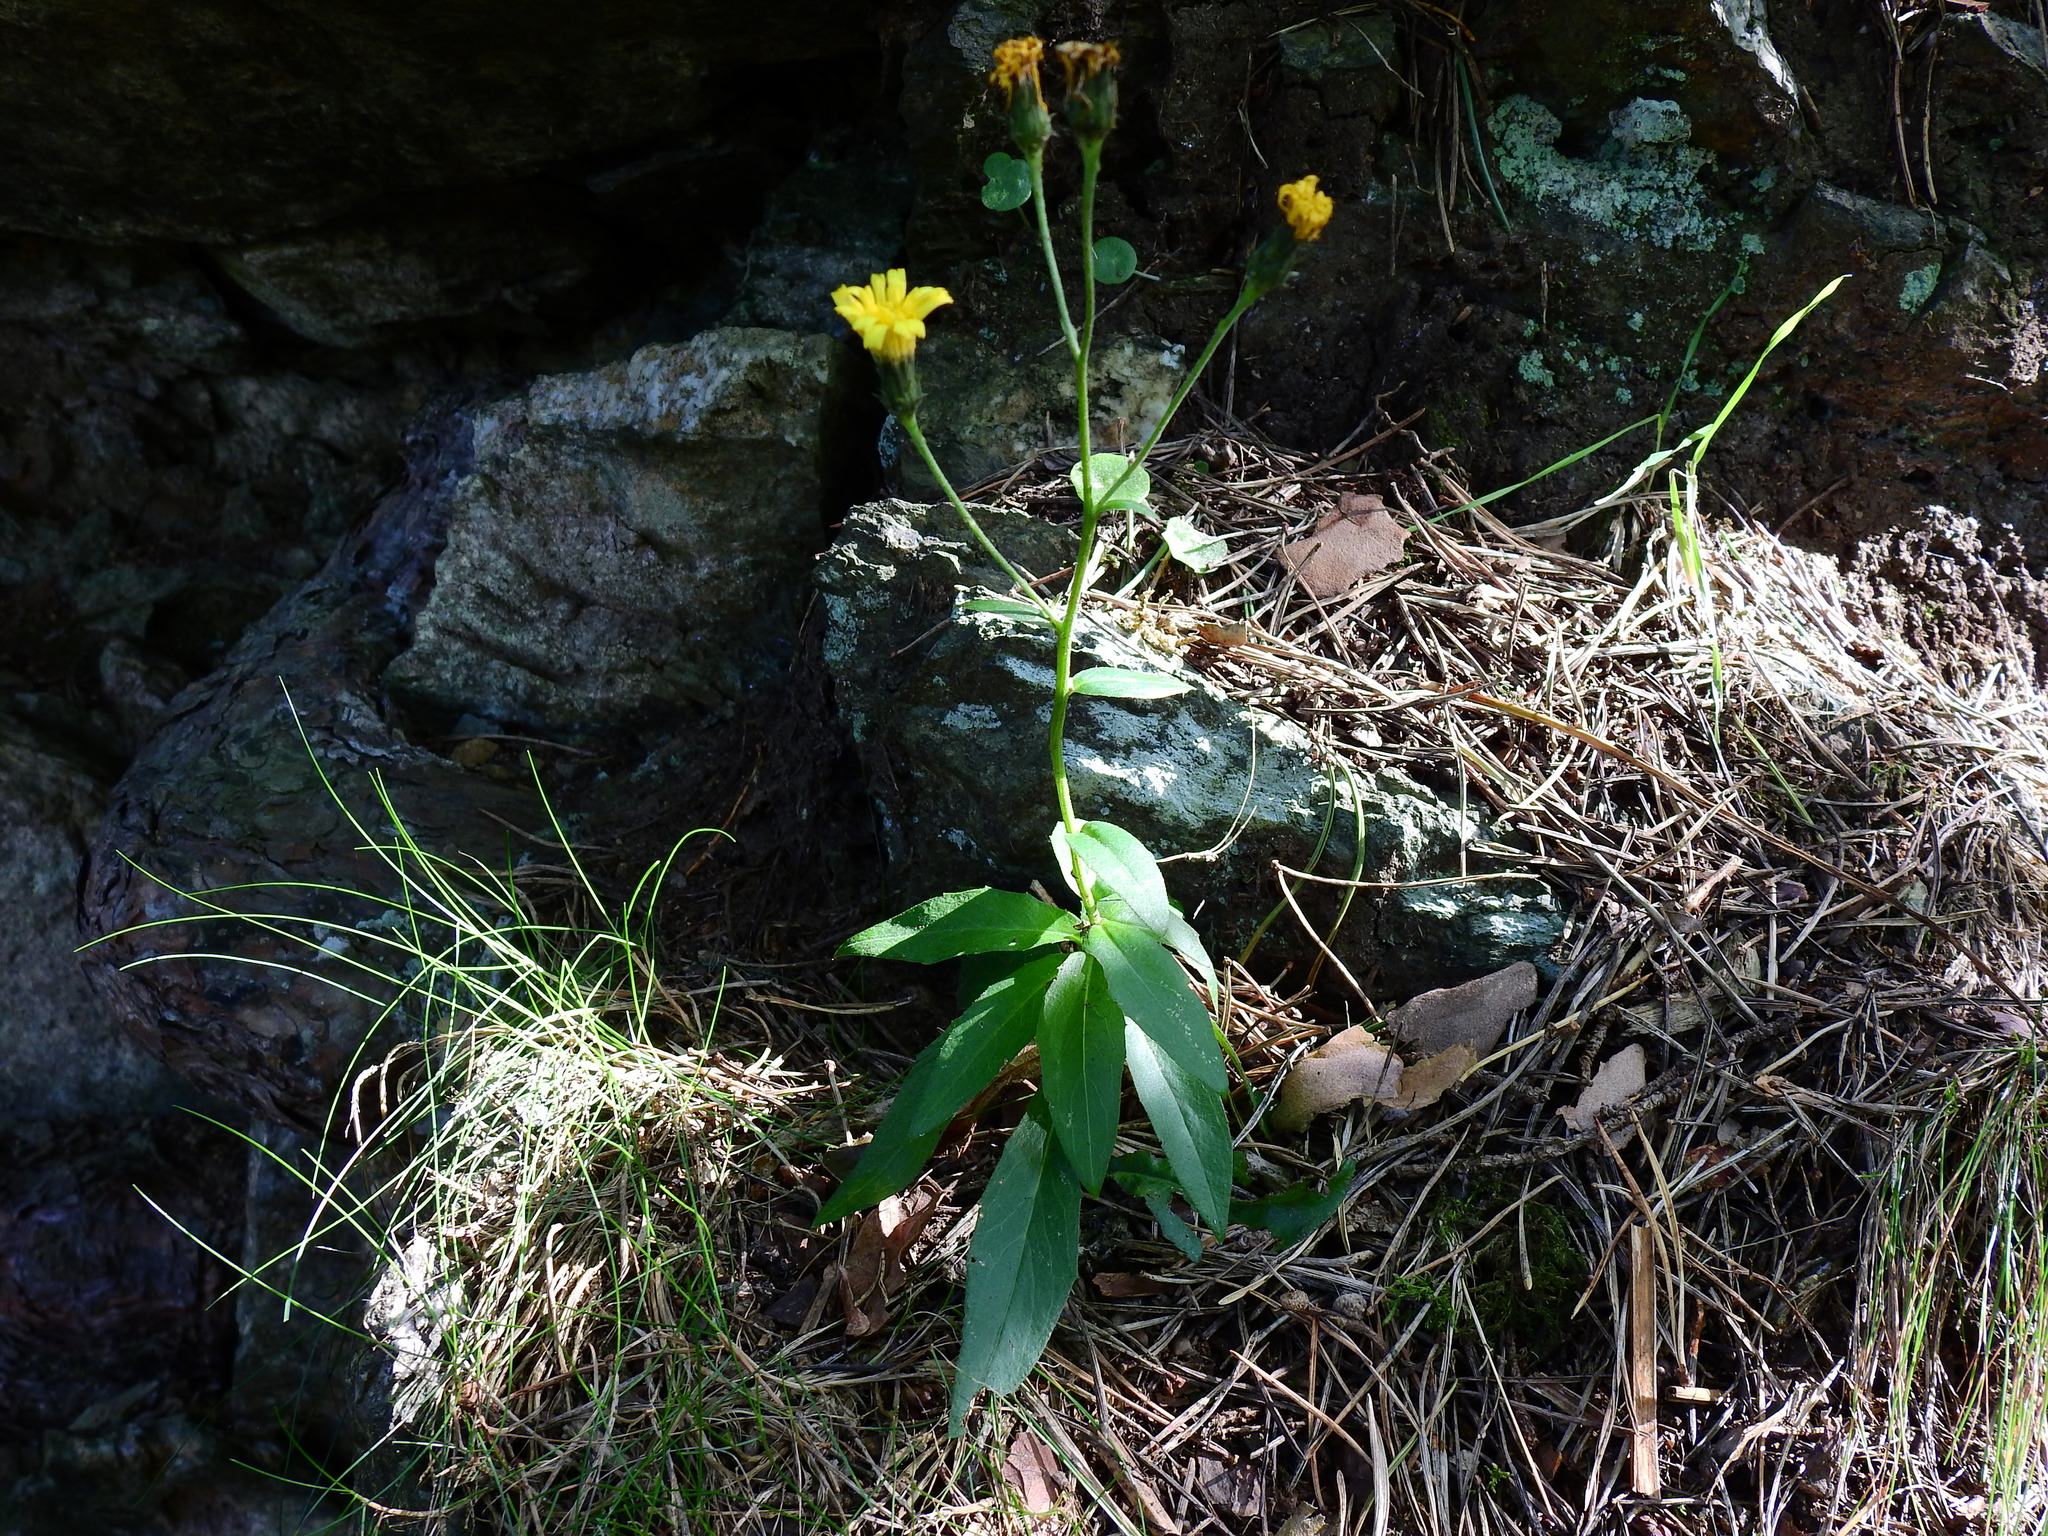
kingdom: Plantae
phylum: Tracheophyta
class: Magnoliopsida
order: Asterales
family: Asteraceae
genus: Hieracium
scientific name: Hieracium umbellatum
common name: Northern hawkweed
